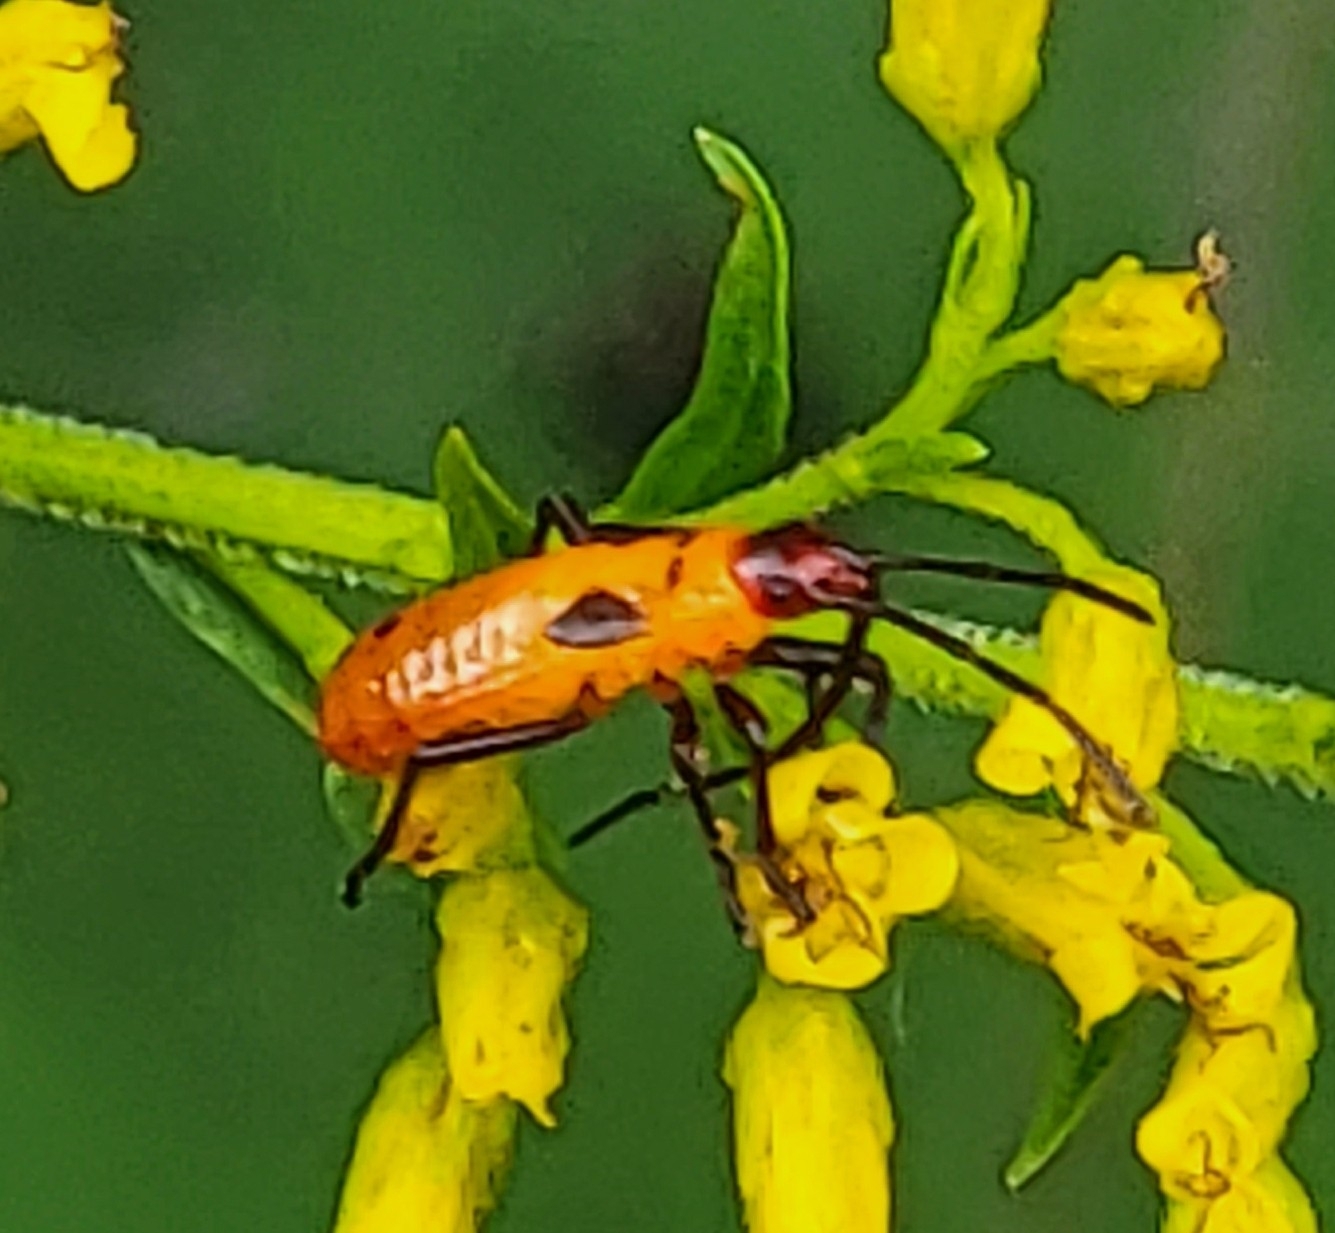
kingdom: Animalia
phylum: Arthropoda
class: Insecta
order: Hemiptera
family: Lygaeidae
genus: Oncopeltus
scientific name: Oncopeltus fasciatus
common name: Large milkweed bug
